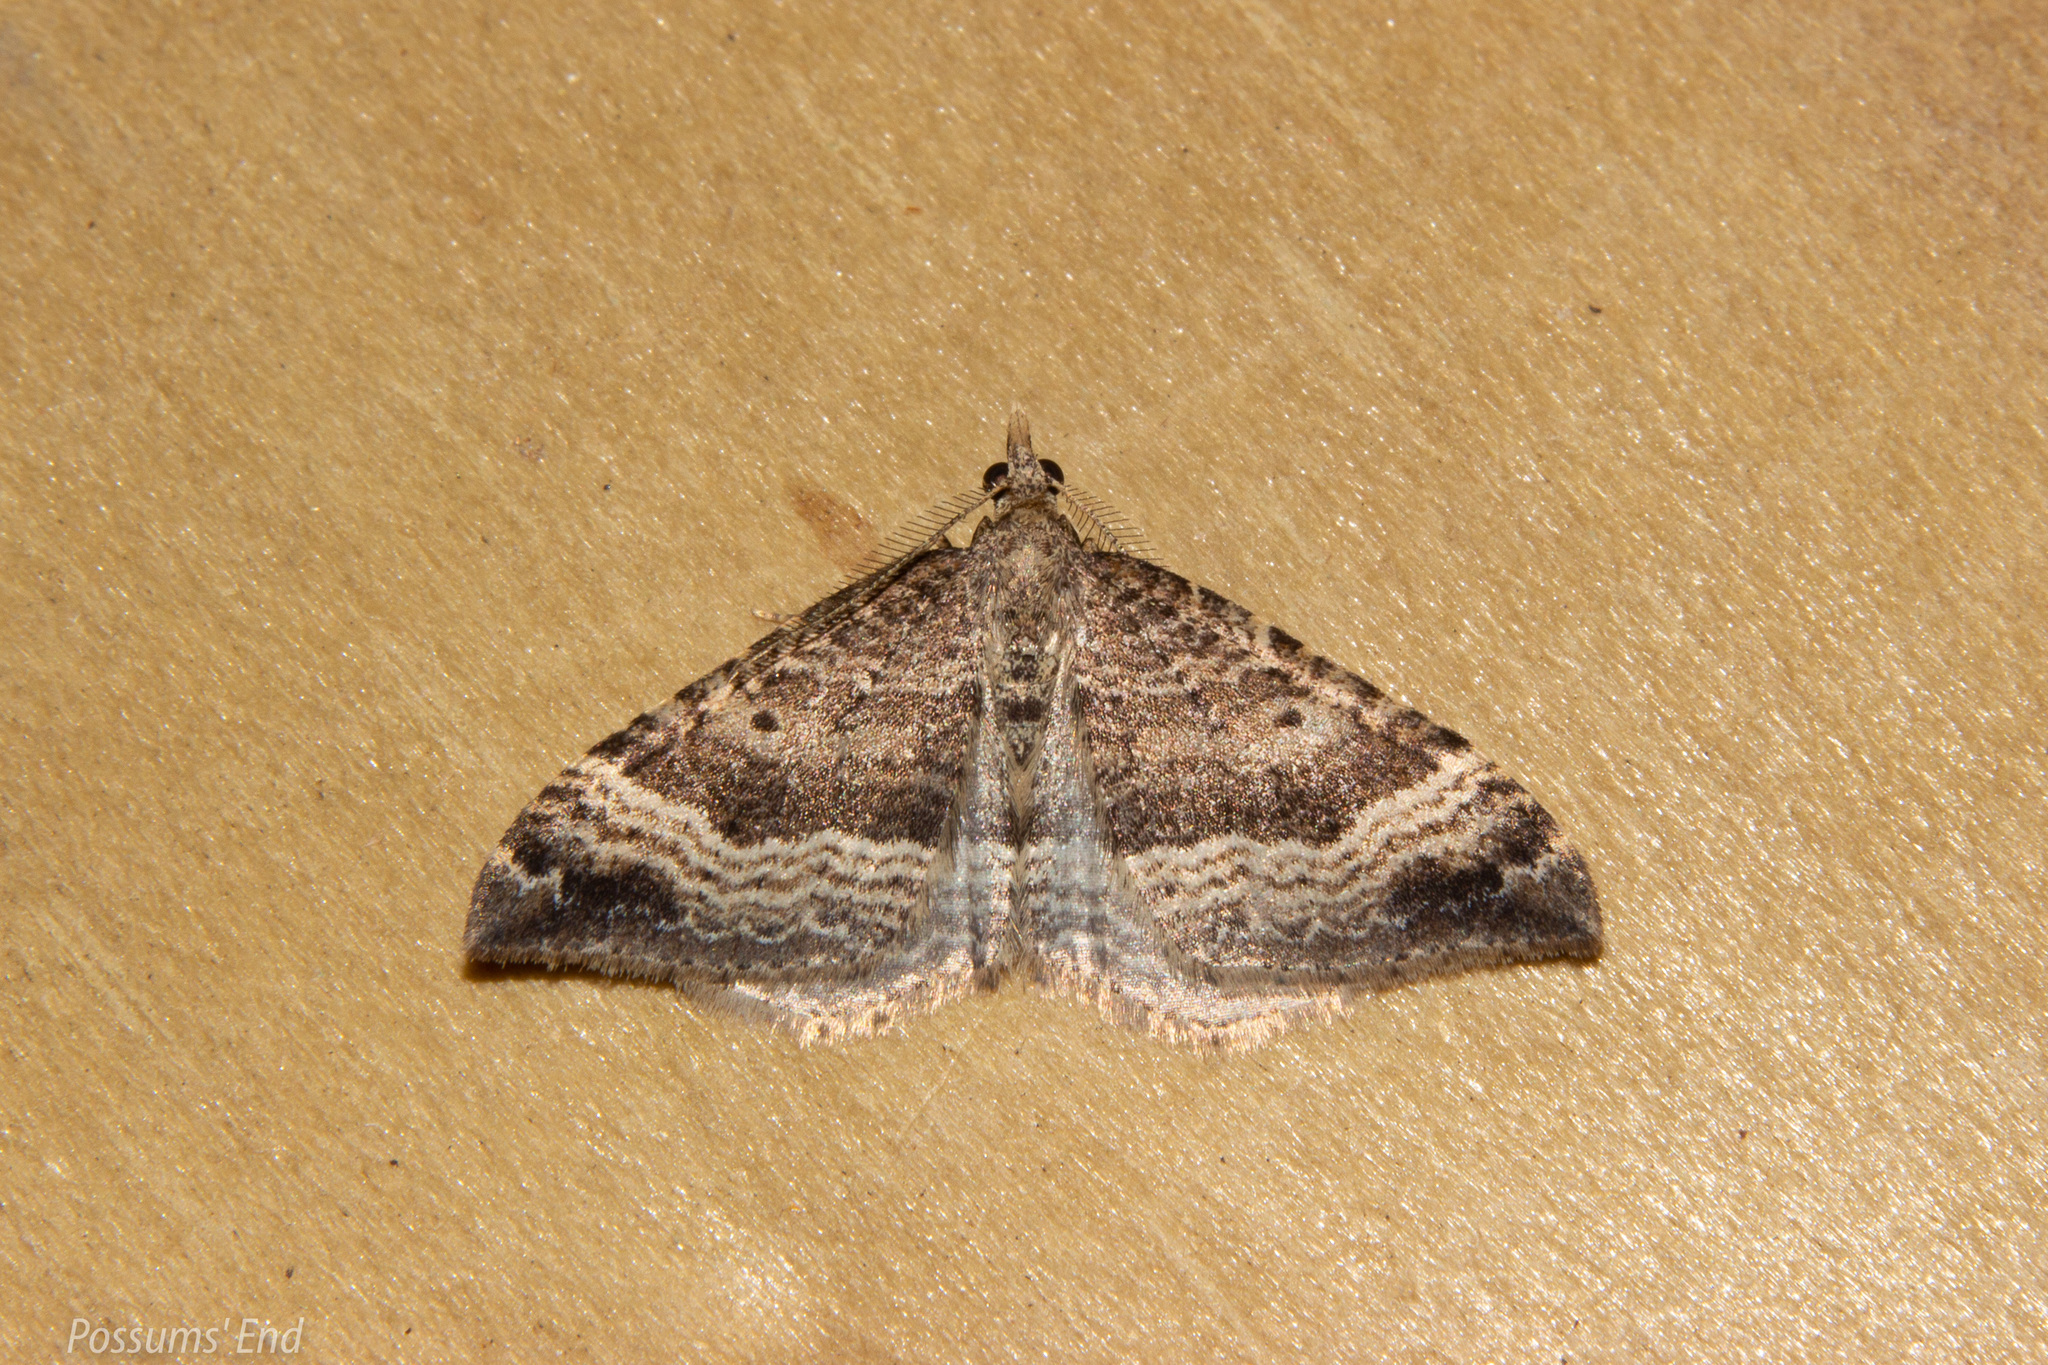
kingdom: Animalia
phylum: Arthropoda
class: Insecta
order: Lepidoptera
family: Geometridae
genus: Homodotis
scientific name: Homodotis falcata
